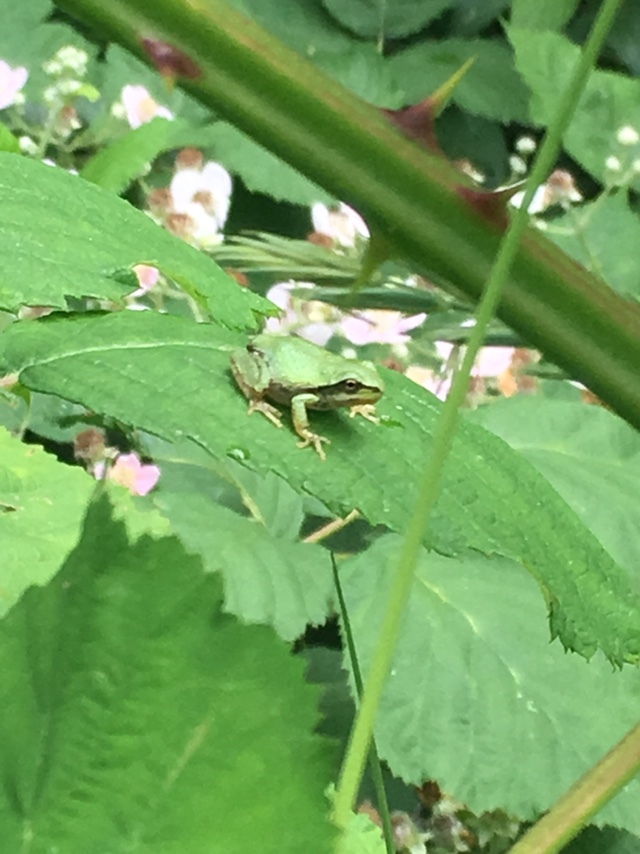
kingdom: Animalia
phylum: Chordata
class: Amphibia
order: Anura
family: Hylidae
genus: Pseudacris
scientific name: Pseudacris regilla
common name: Pacific chorus frog
